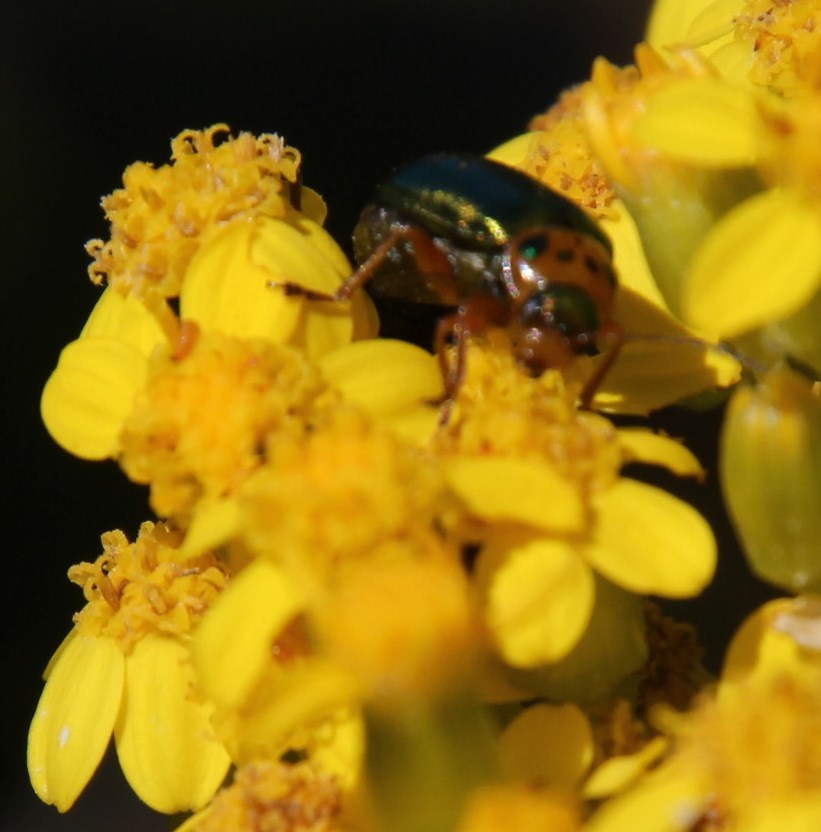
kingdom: Animalia
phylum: Arthropoda
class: Insecta
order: Coleoptera
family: Chrysomelidae
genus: Palaeophylia
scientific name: Palaeophylia
